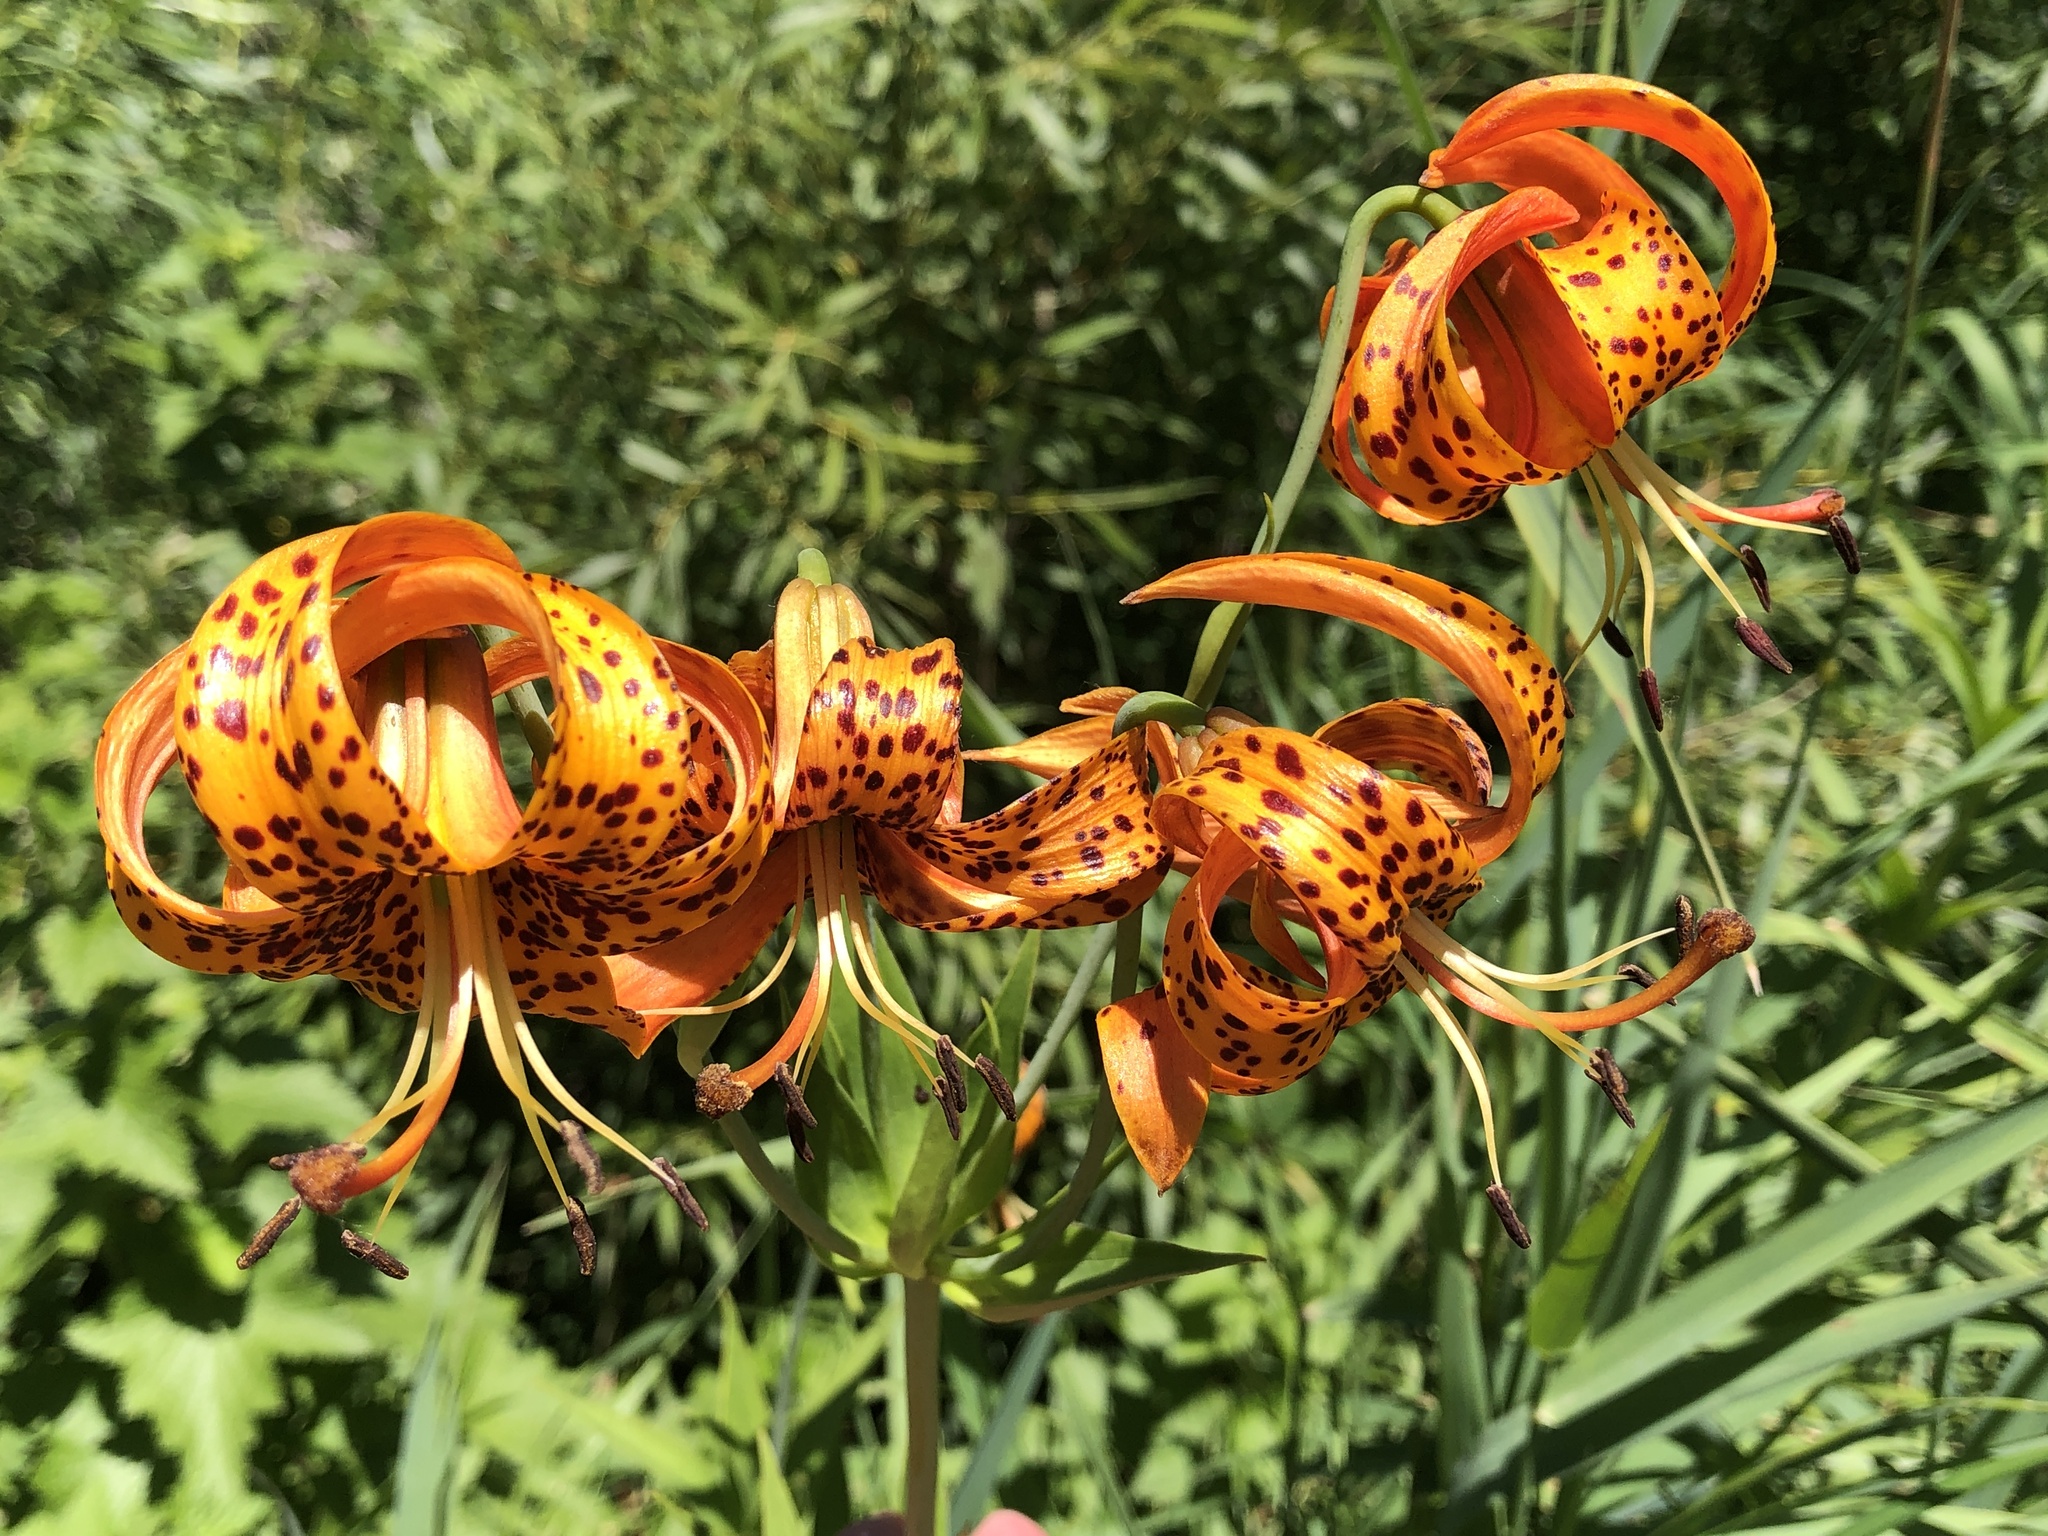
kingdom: Plantae
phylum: Tracheophyta
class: Liliopsida
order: Liliales
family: Liliaceae
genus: Lilium
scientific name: Lilium michiganense
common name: Michigan lily
